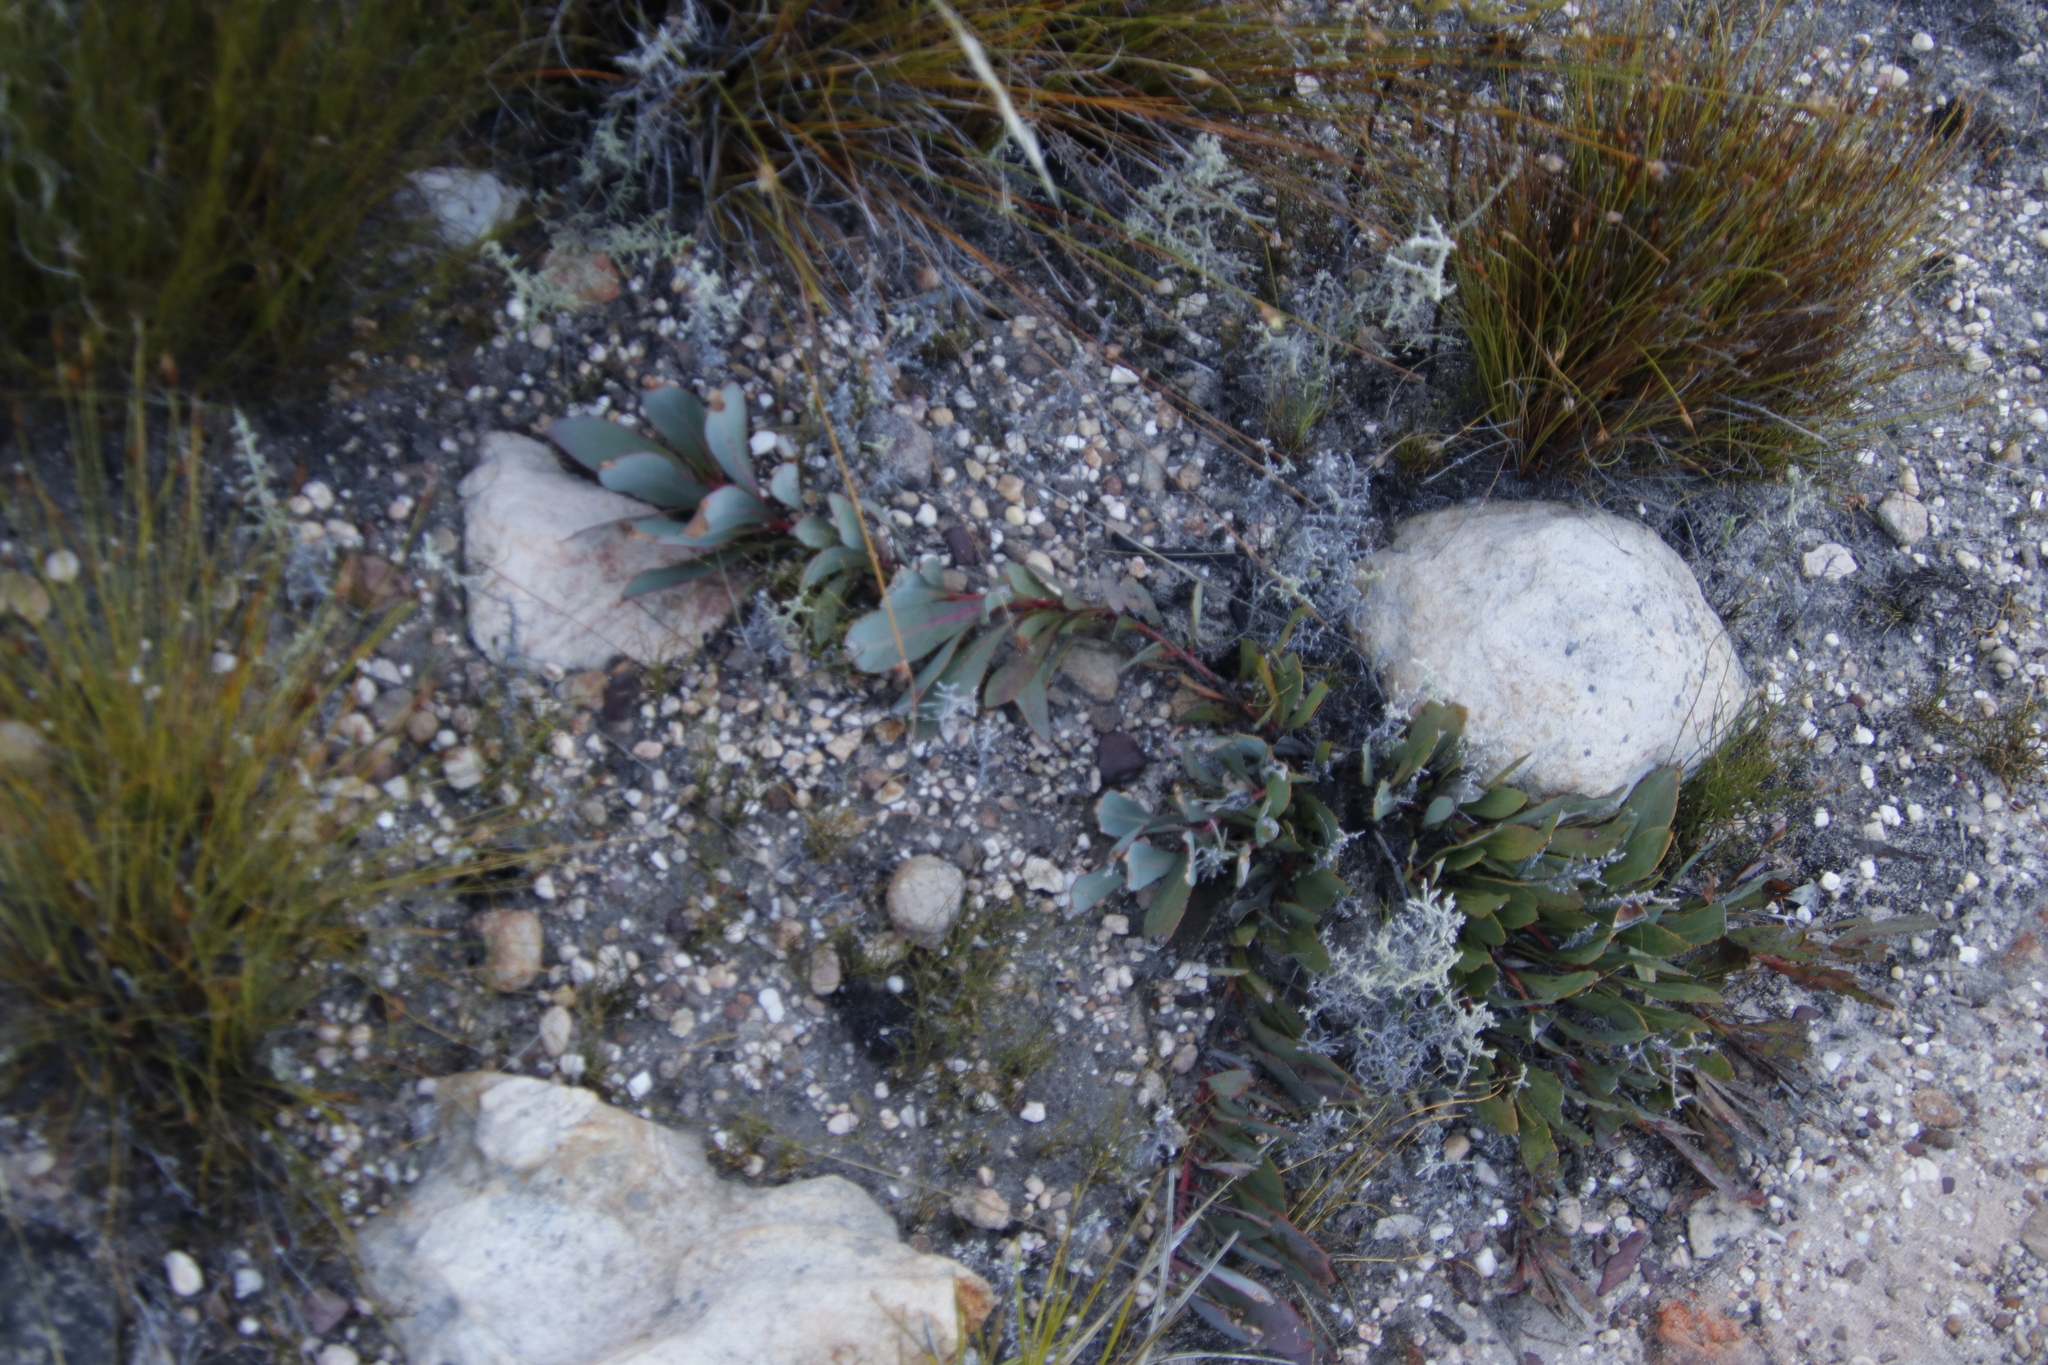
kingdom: Plantae
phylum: Tracheophyta
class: Magnoliopsida
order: Proteales
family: Proteaceae
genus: Protea
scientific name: Protea acaulos
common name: Common ground sugarbush
